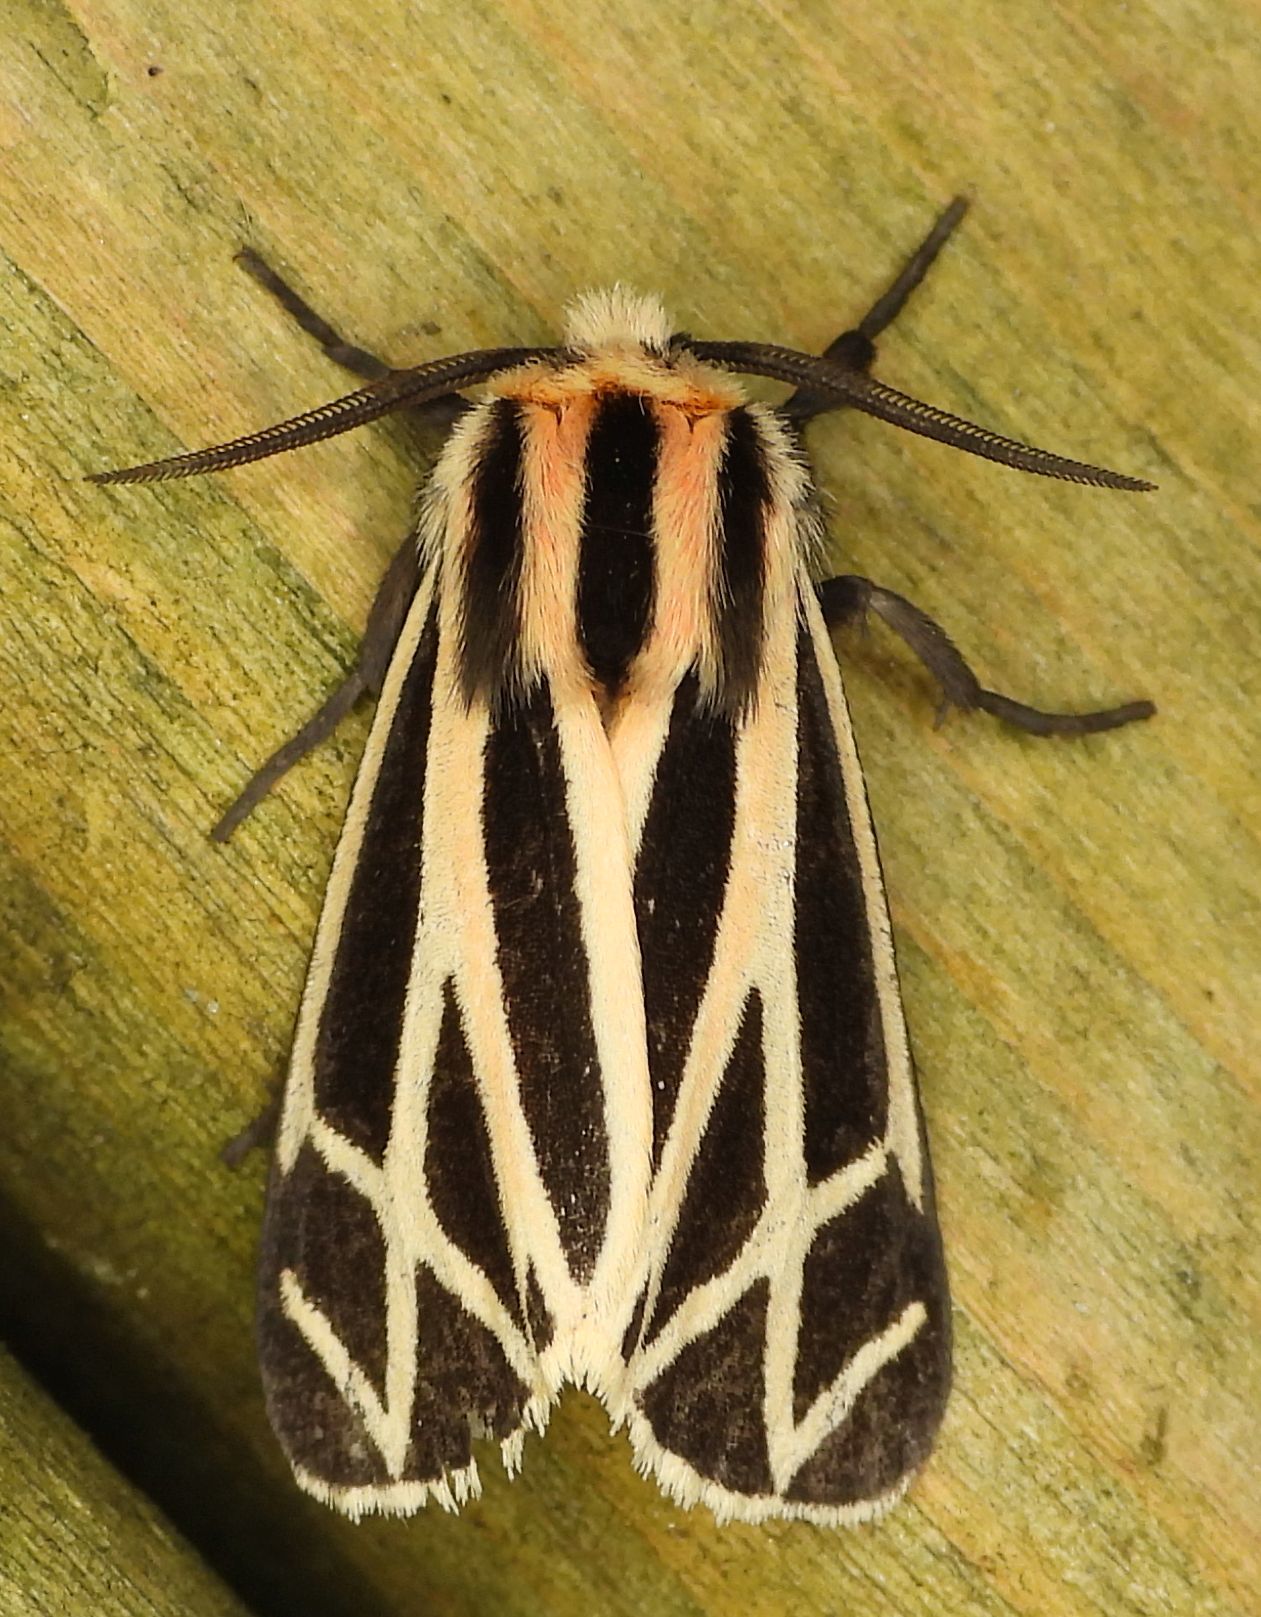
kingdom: Animalia
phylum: Arthropoda
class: Insecta
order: Lepidoptera
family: Erebidae
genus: Apantesis
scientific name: Apantesis phalerata
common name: Harnessed tiger moth
